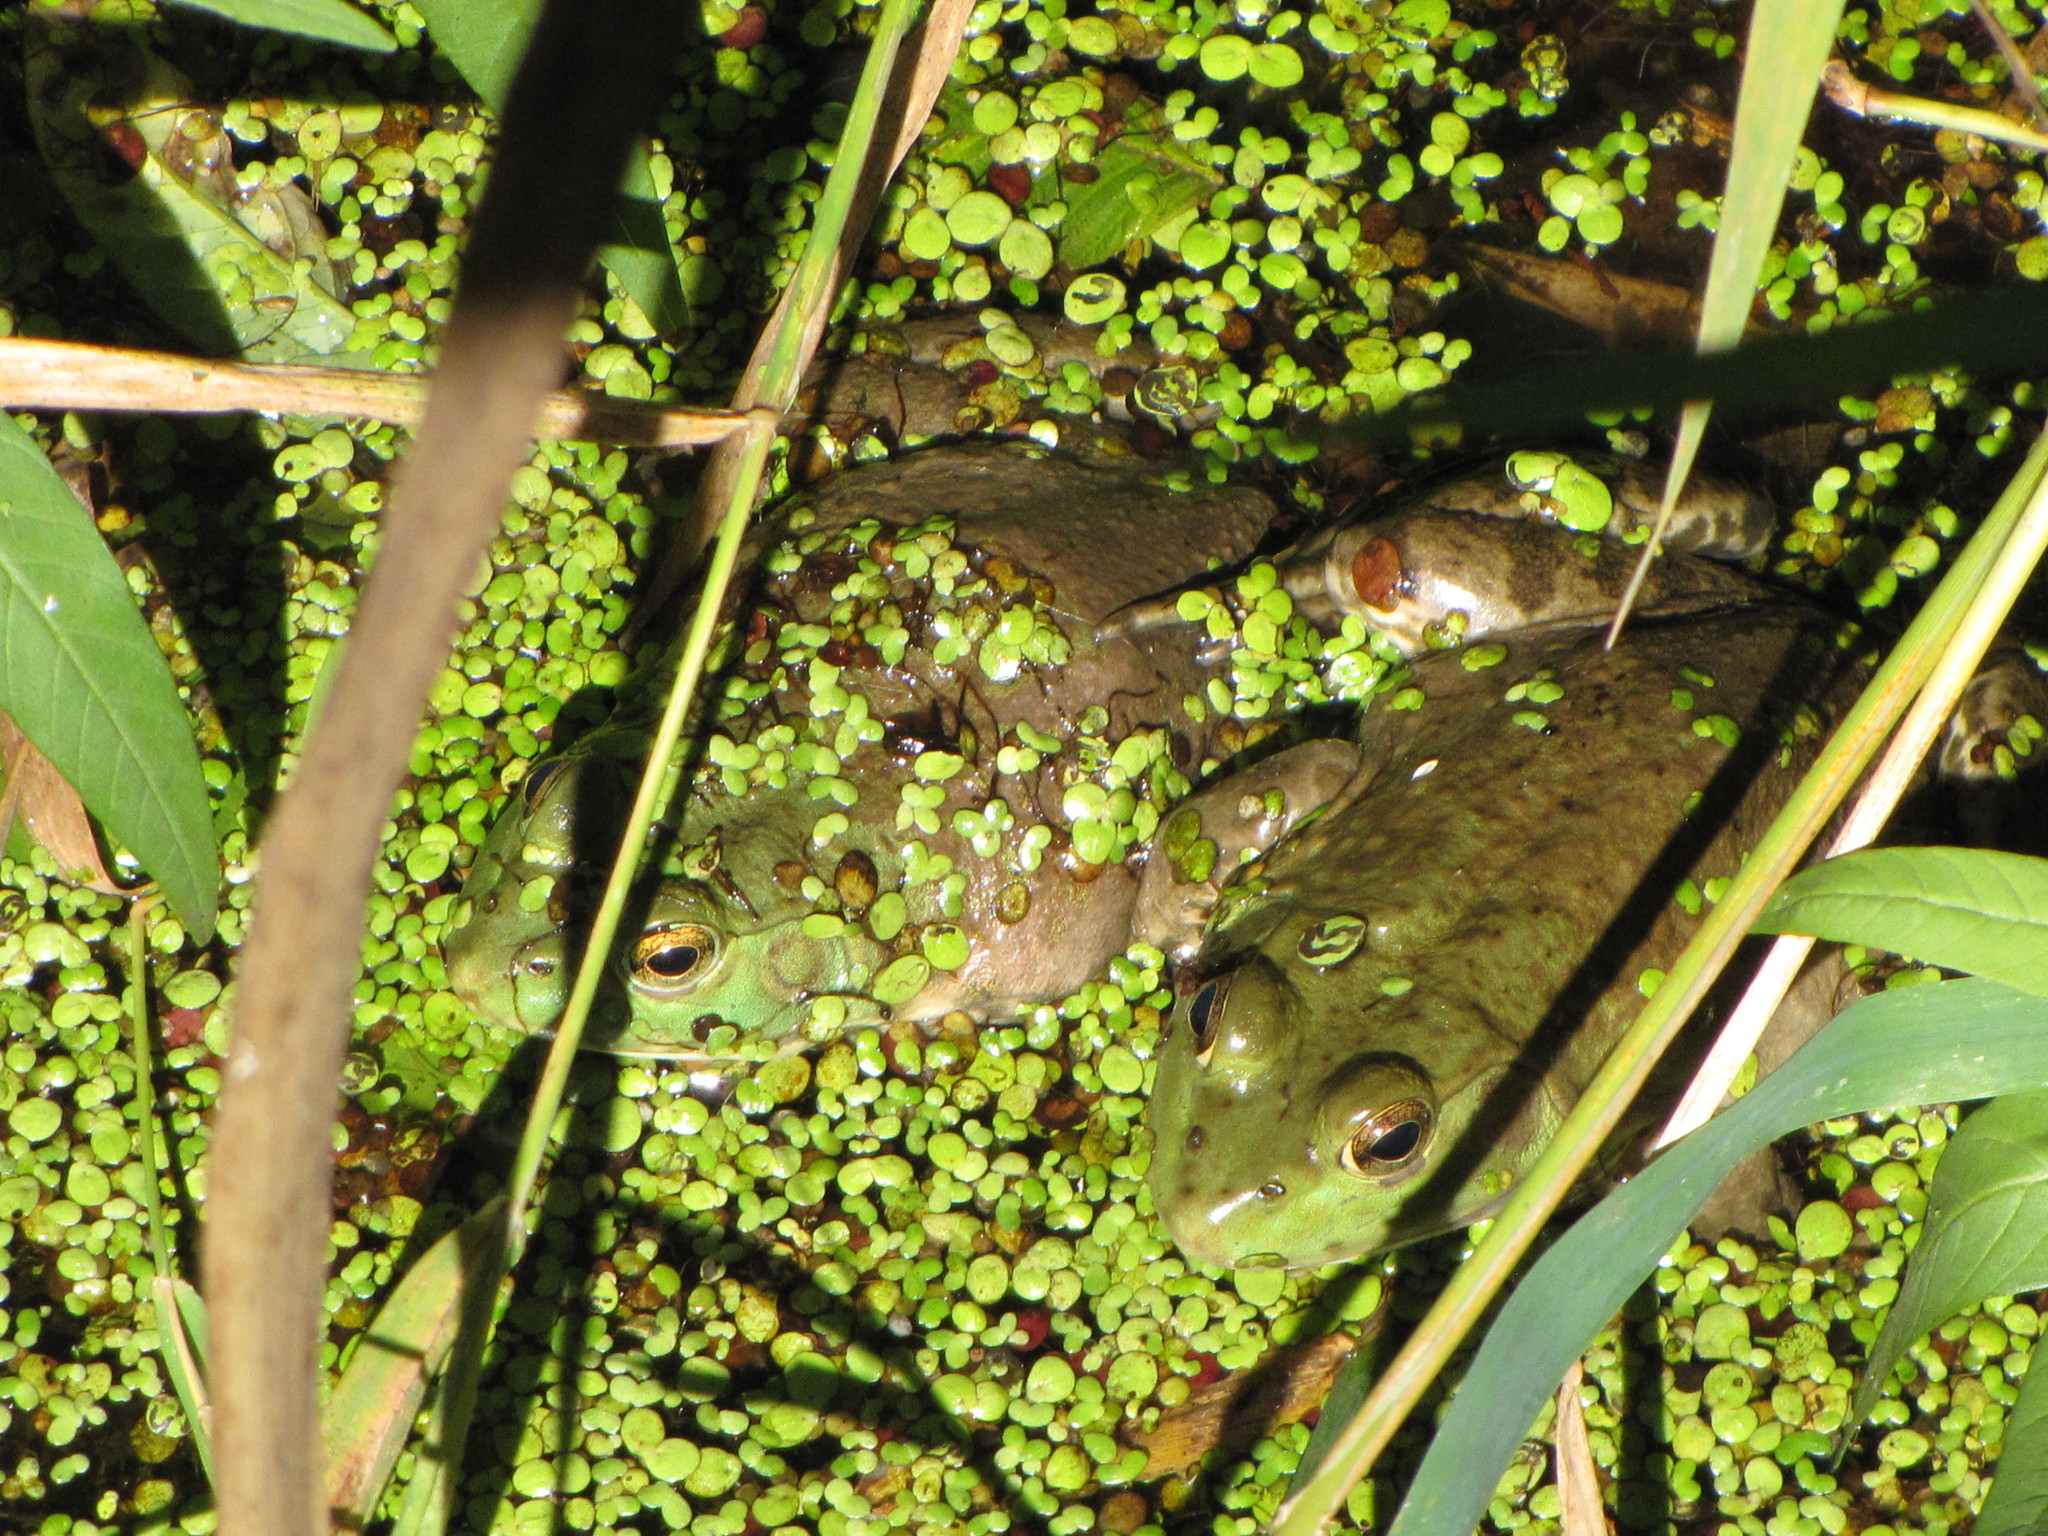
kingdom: Animalia
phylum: Chordata
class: Amphibia
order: Anura
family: Ranidae
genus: Lithobates
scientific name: Lithobates catesbeianus
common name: American bullfrog
